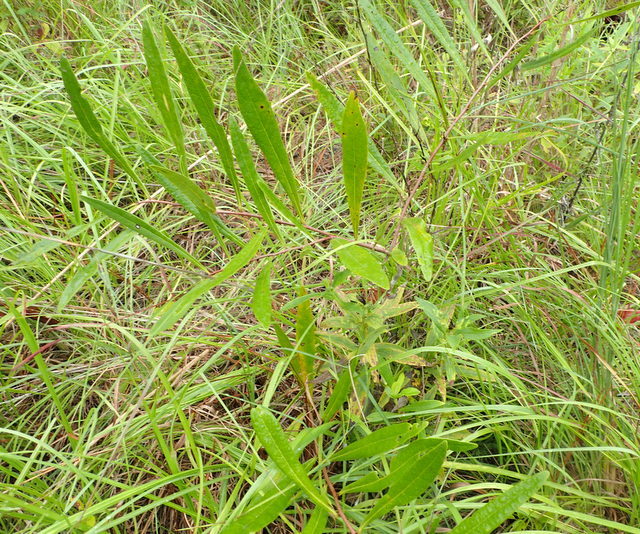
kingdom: Plantae
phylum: Tracheophyta
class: Magnoliopsida
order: Magnoliales
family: Annonaceae
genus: Asimina
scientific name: Asimina longifolia
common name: Polecatbush
